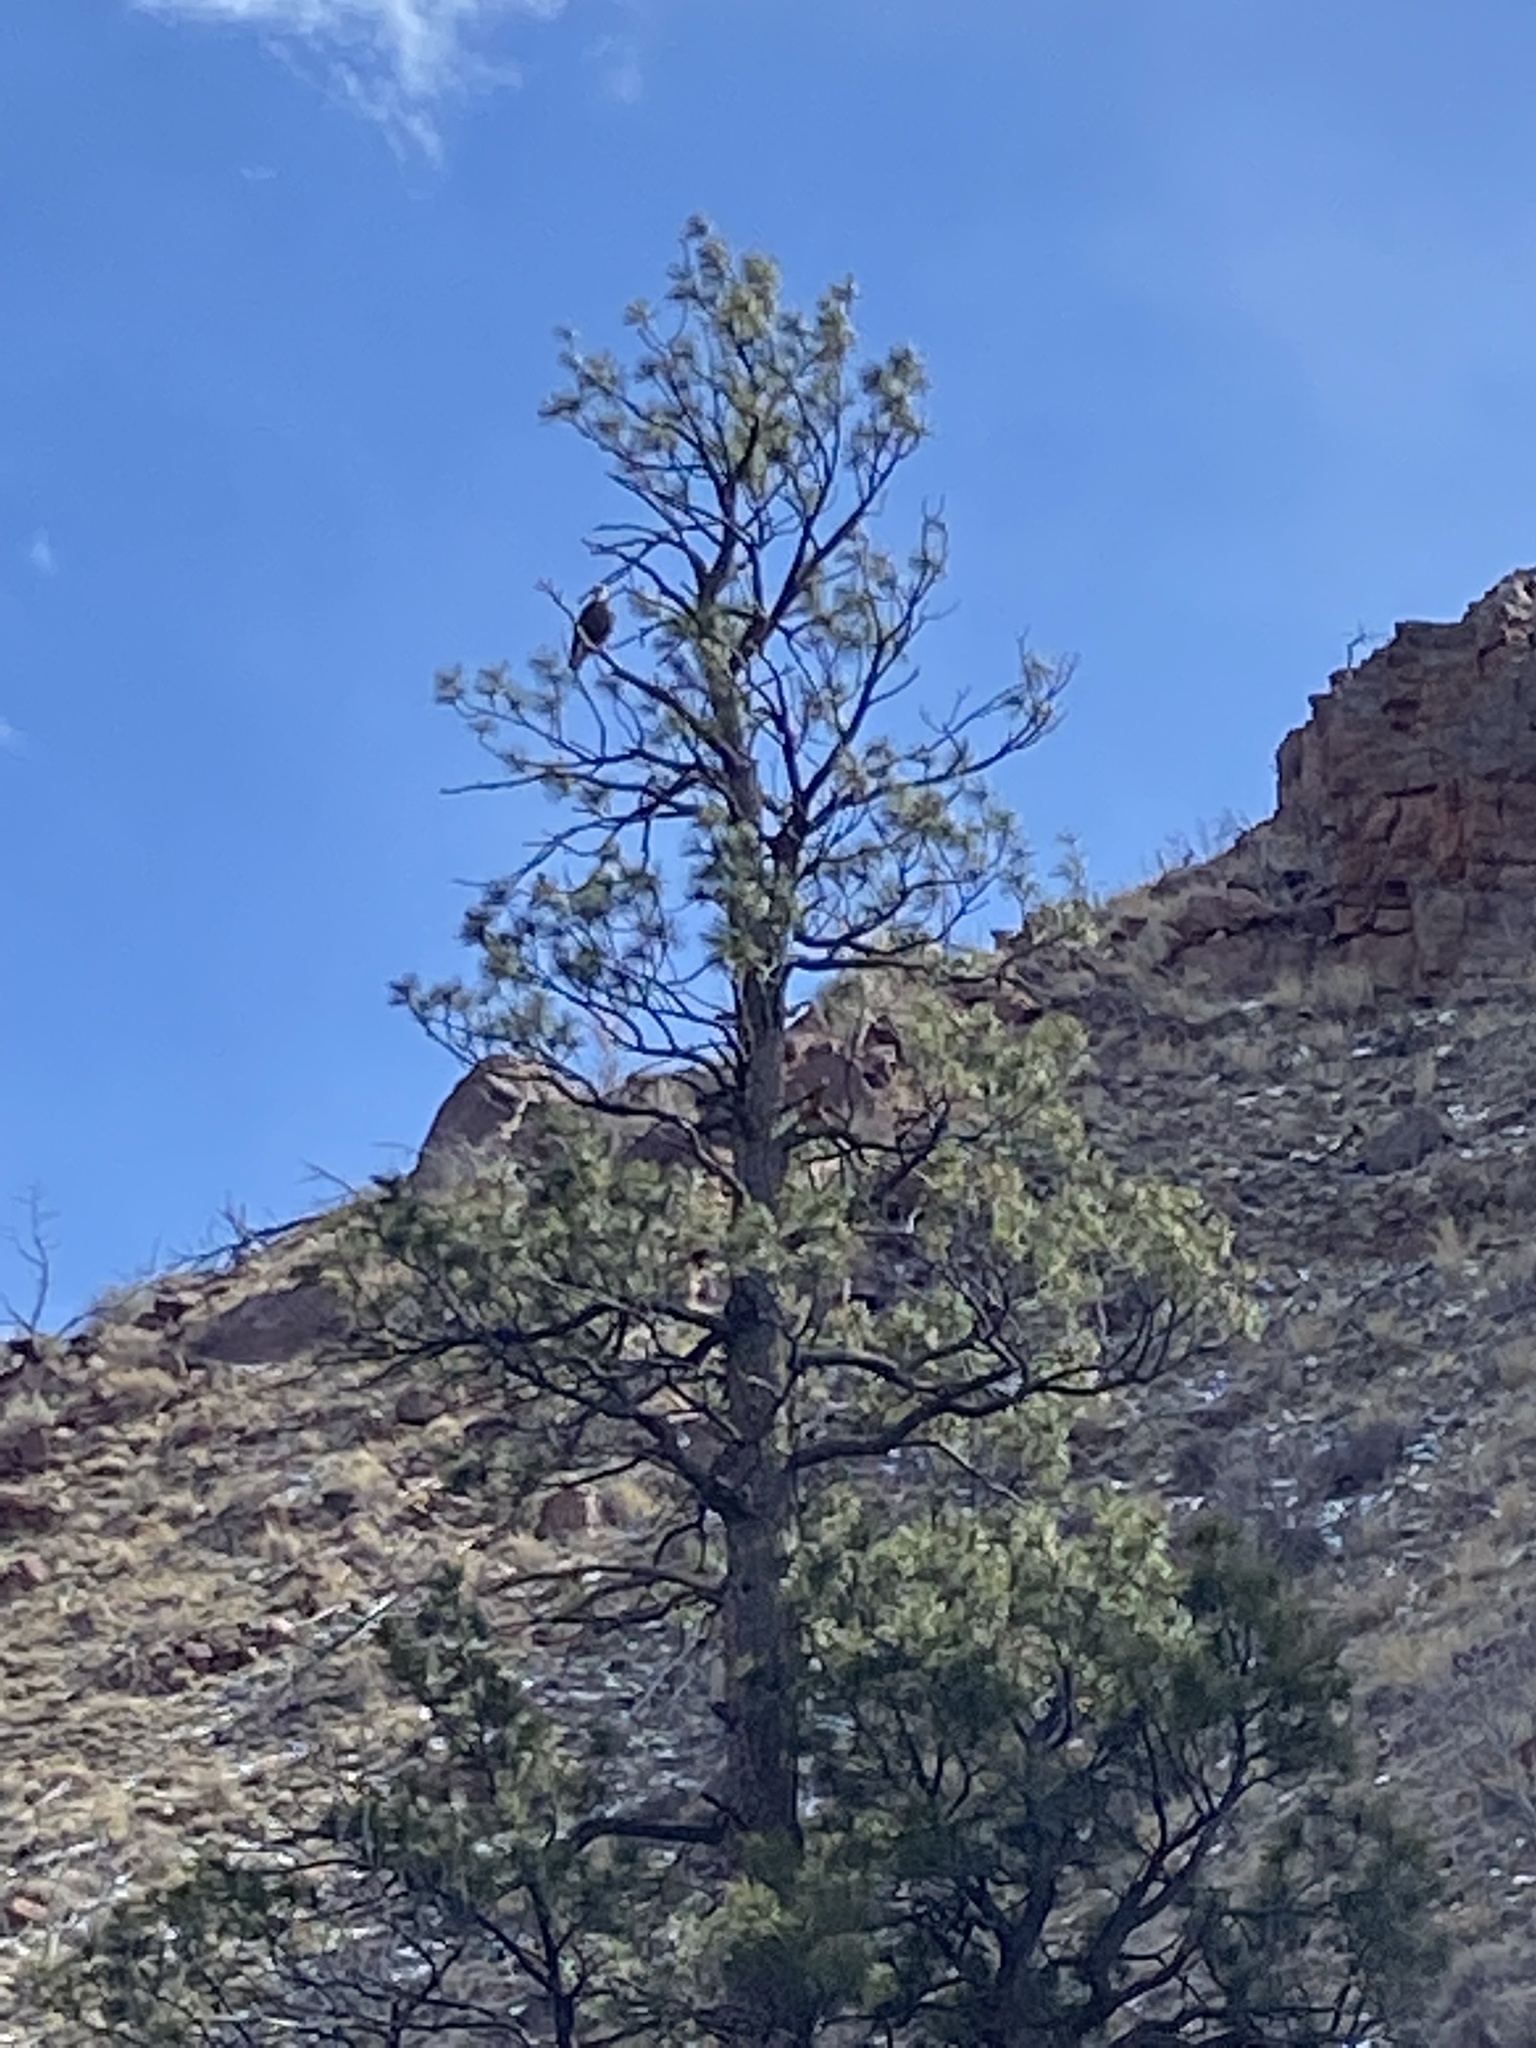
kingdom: Animalia
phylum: Chordata
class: Aves
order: Accipitriformes
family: Accipitridae
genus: Haliaeetus
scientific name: Haliaeetus leucocephalus
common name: Bald eagle
